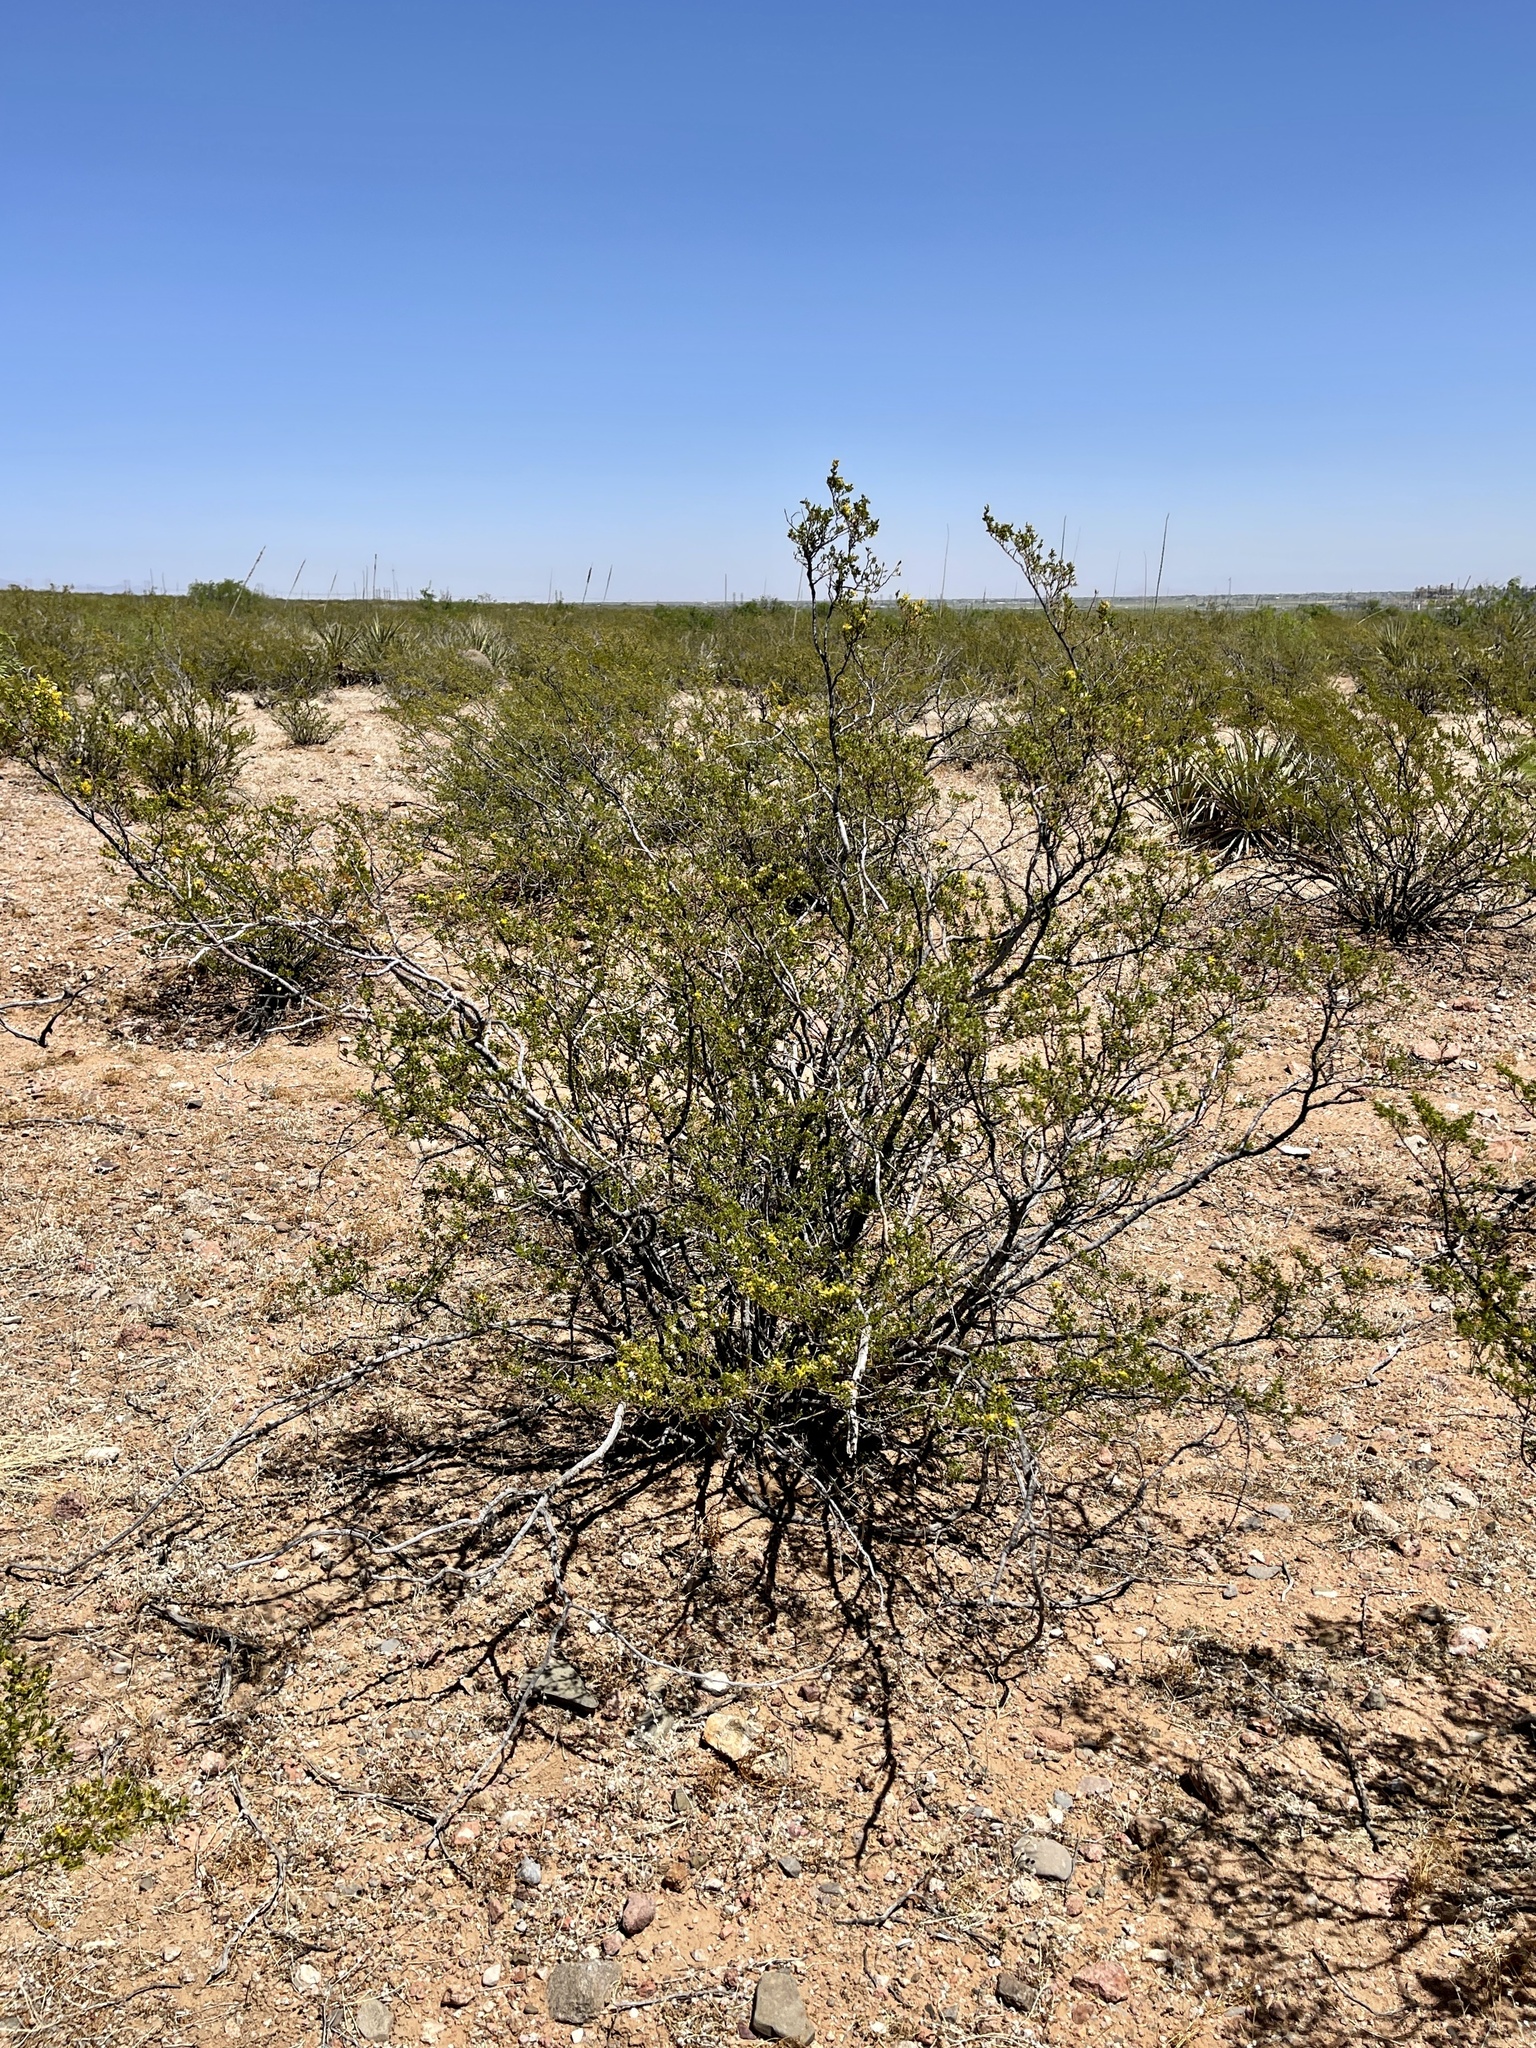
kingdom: Plantae
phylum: Tracheophyta
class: Magnoliopsida
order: Zygophyllales
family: Zygophyllaceae
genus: Larrea
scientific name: Larrea tridentata
